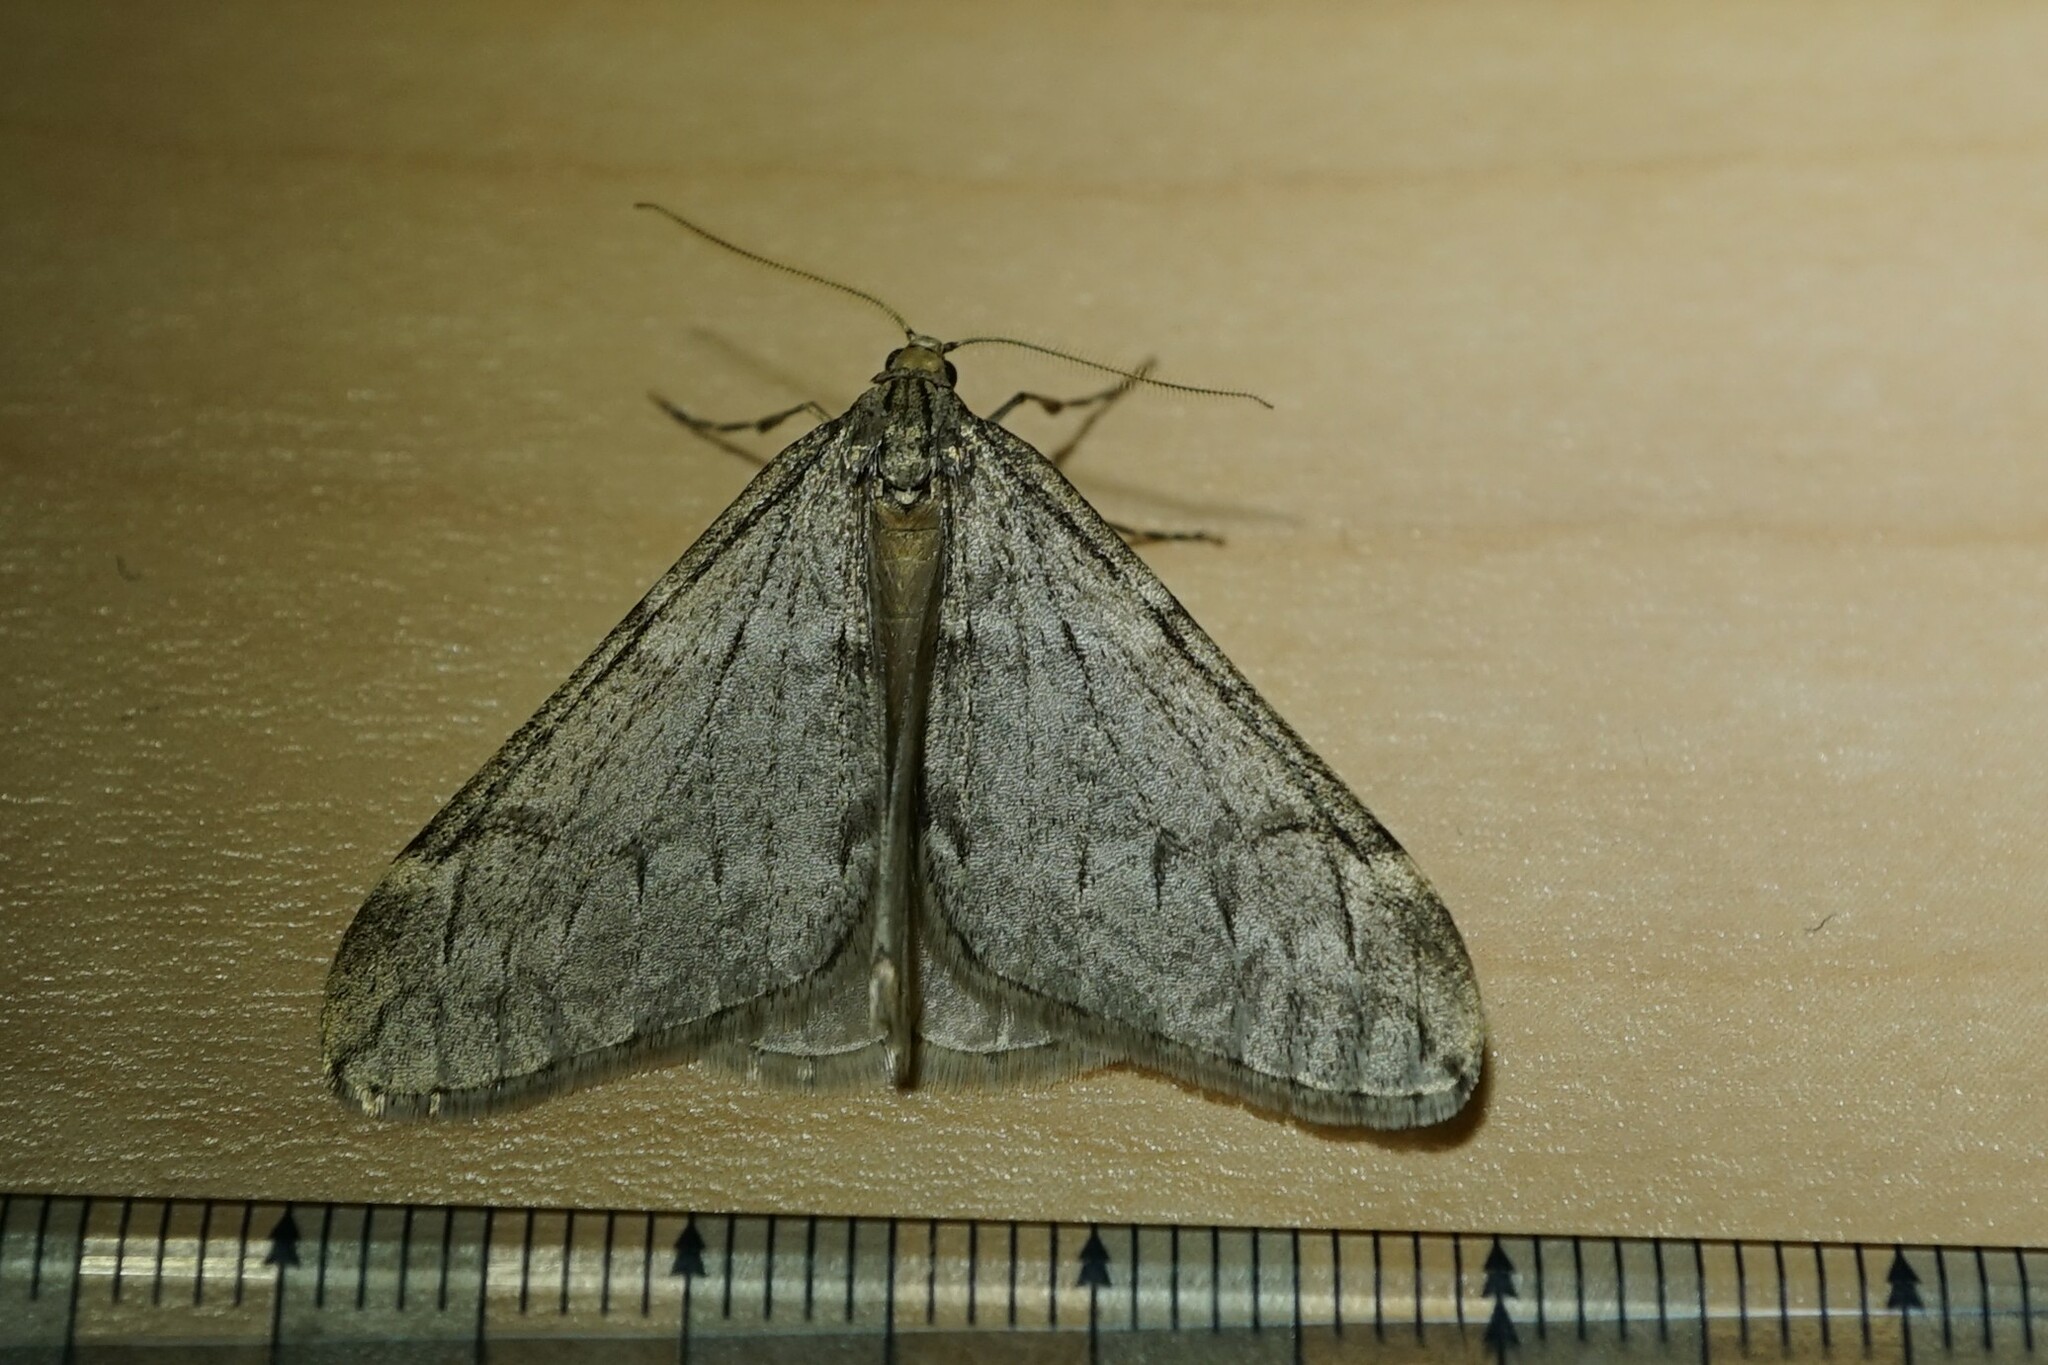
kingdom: Animalia
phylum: Arthropoda
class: Insecta
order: Lepidoptera
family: Geometridae
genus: Alsophila
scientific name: Alsophila japonensis
